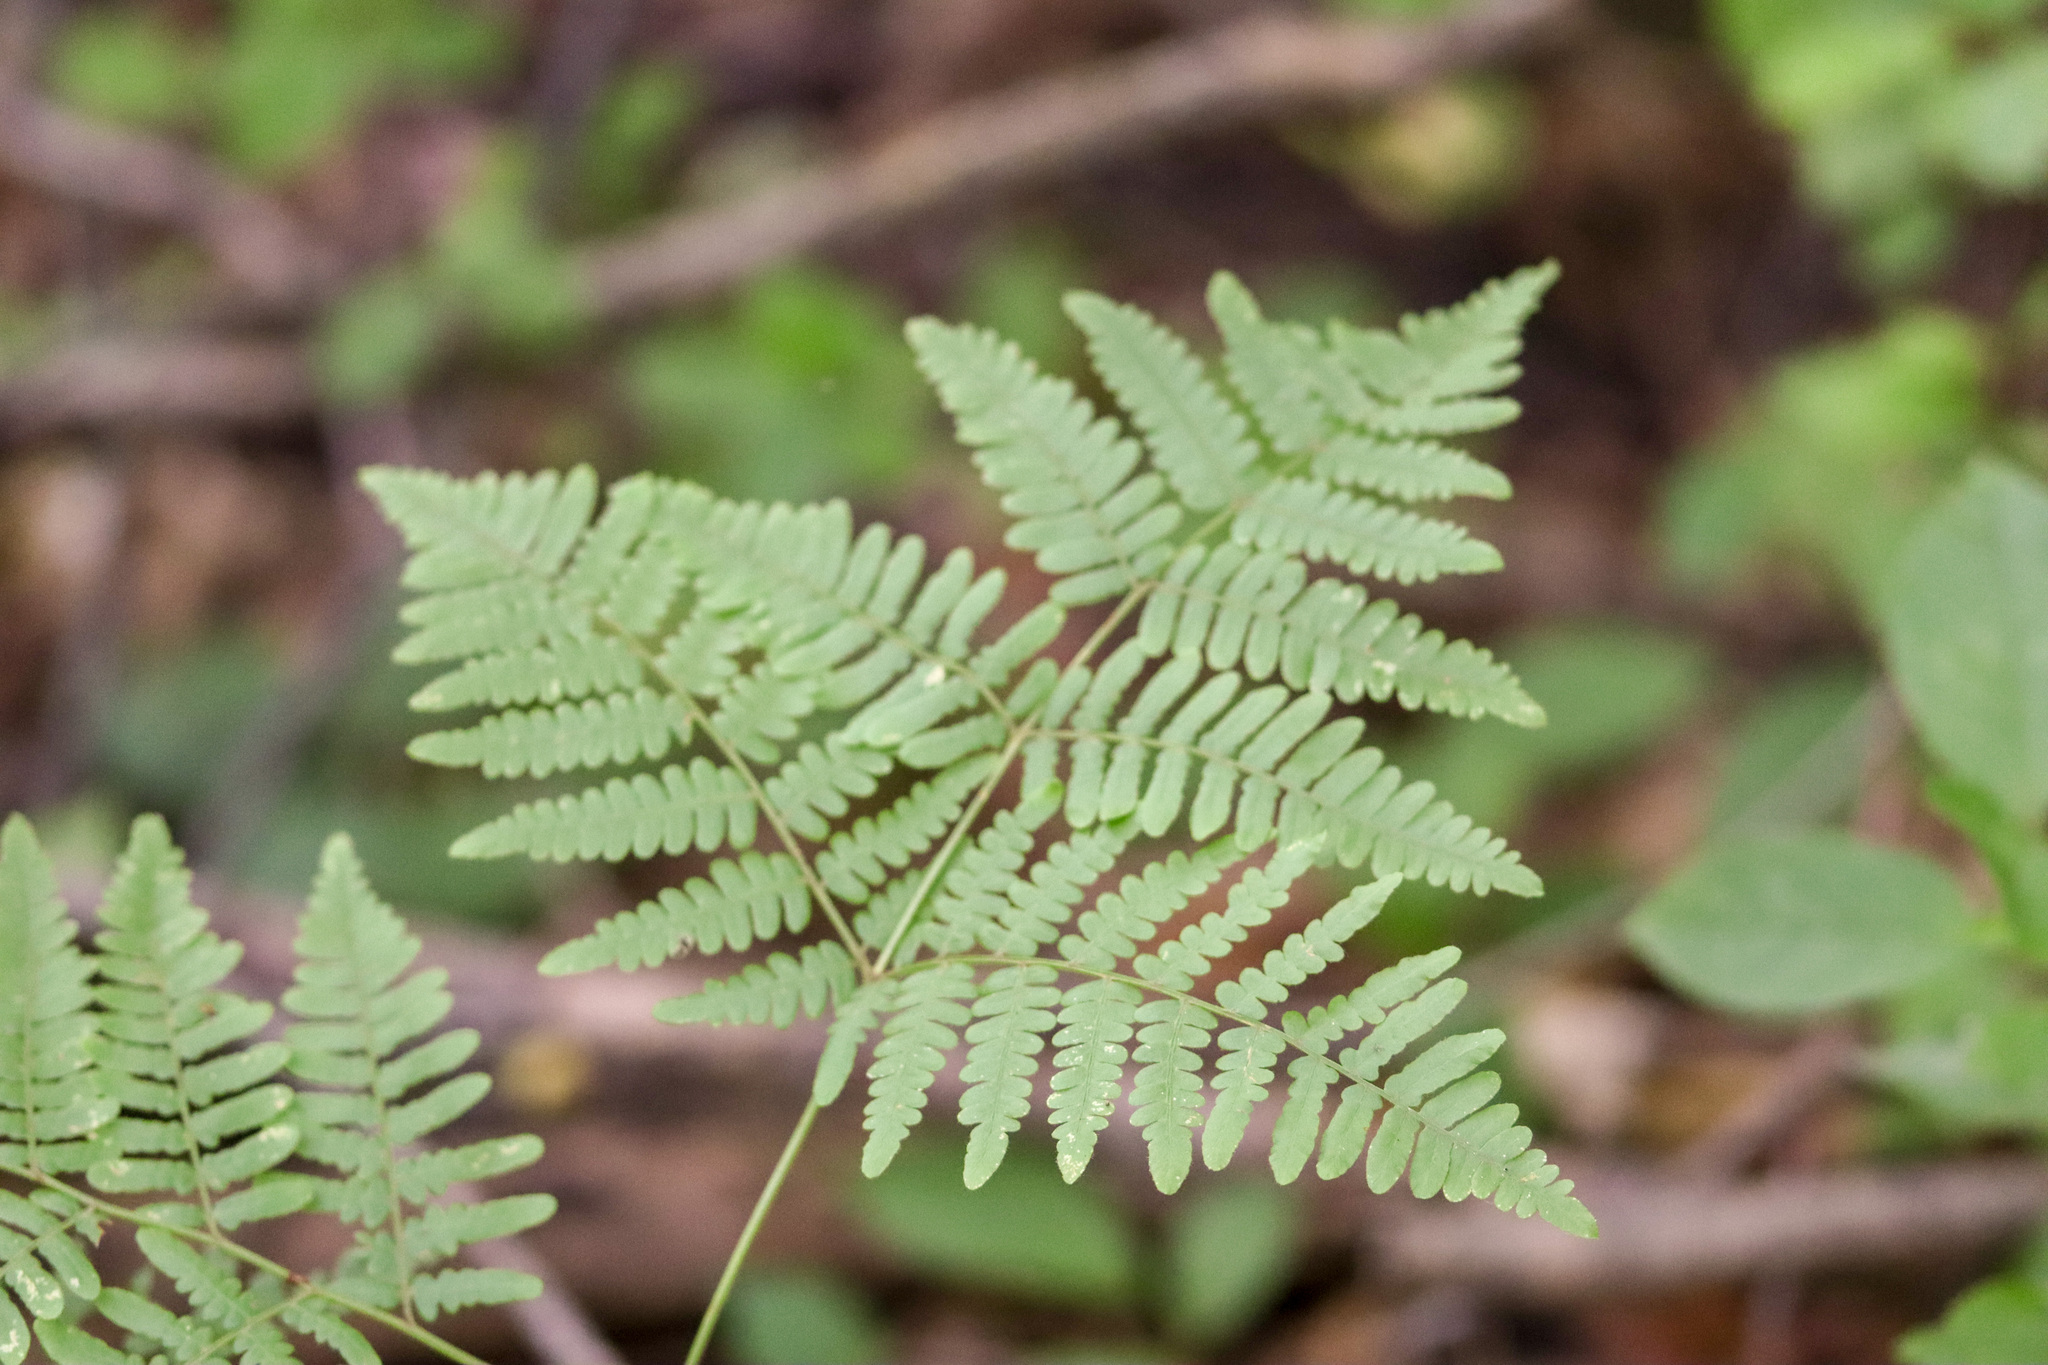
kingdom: Plantae
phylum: Tracheophyta
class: Polypodiopsida
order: Polypodiales
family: Dennstaedtiaceae
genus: Pteridium
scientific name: Pteridium aquilinum
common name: Bracken
